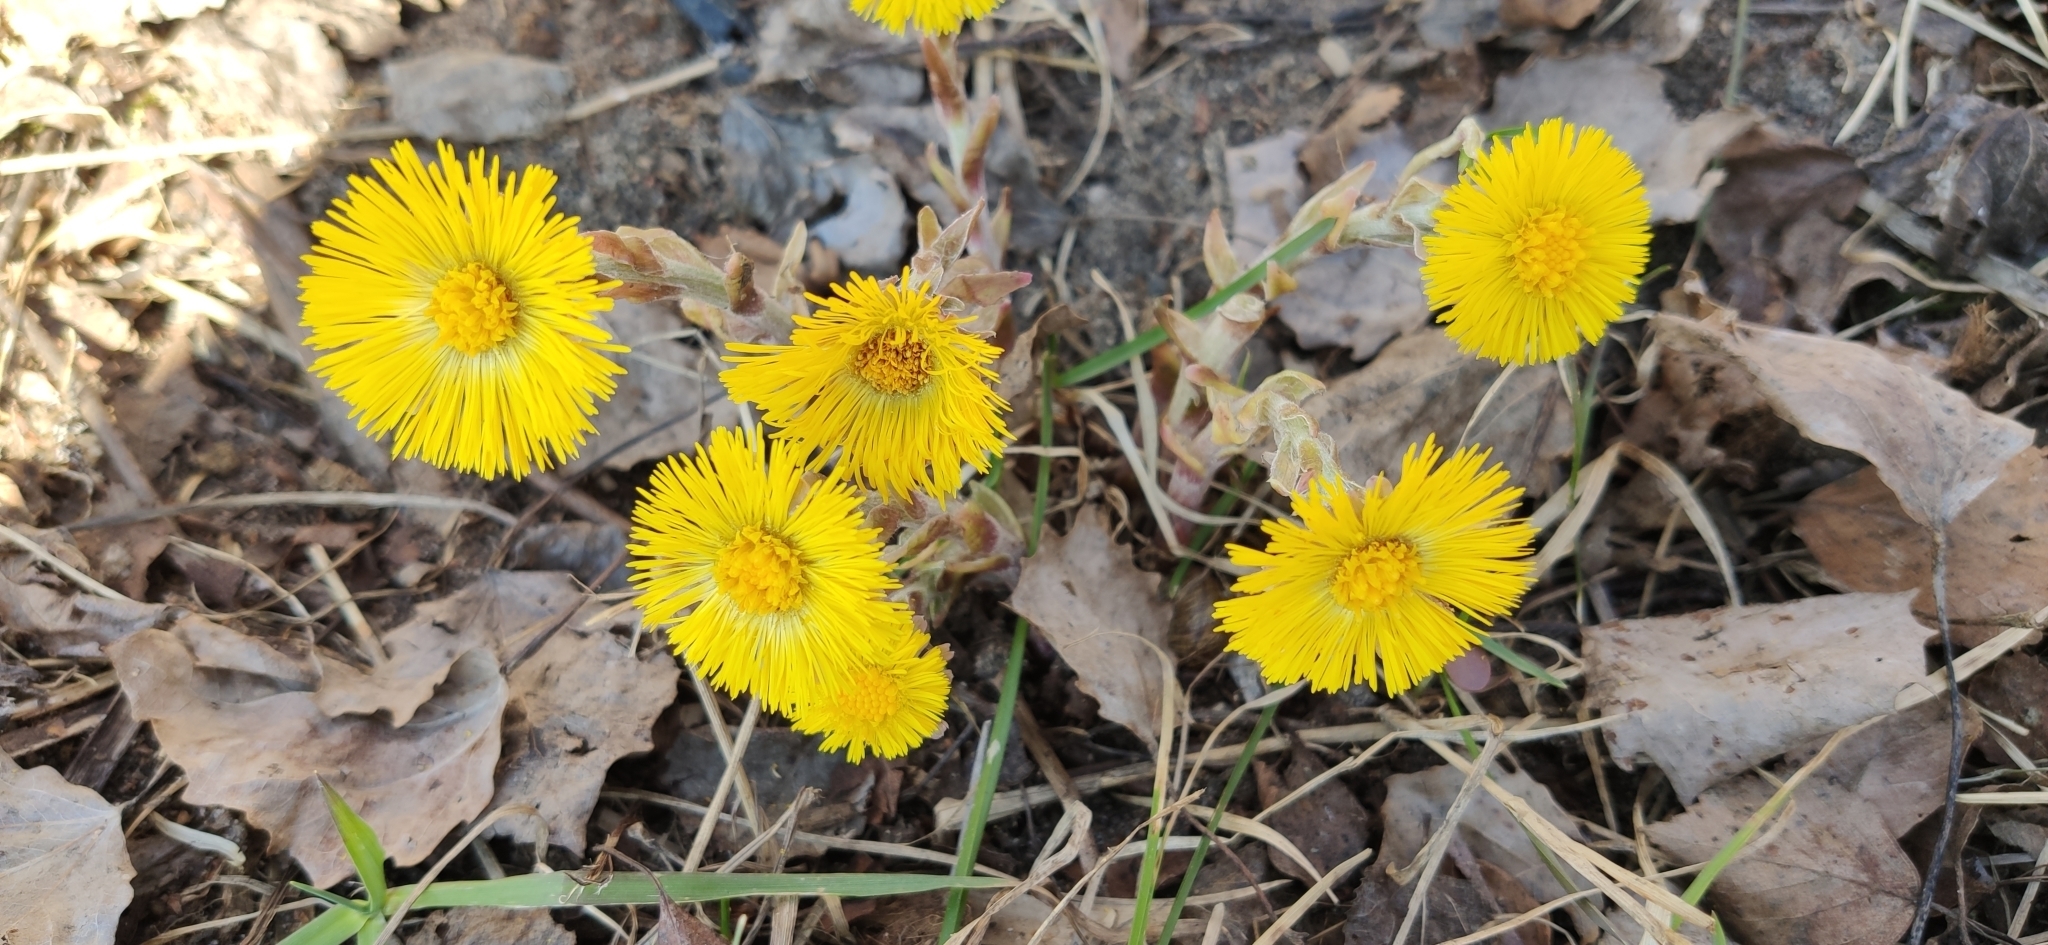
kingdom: Plantae
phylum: Tracheophyta
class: Magnoliopsida
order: Asterales
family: Asteraceae
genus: Tussilago
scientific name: Tussilago farfara
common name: Coltsfoot
